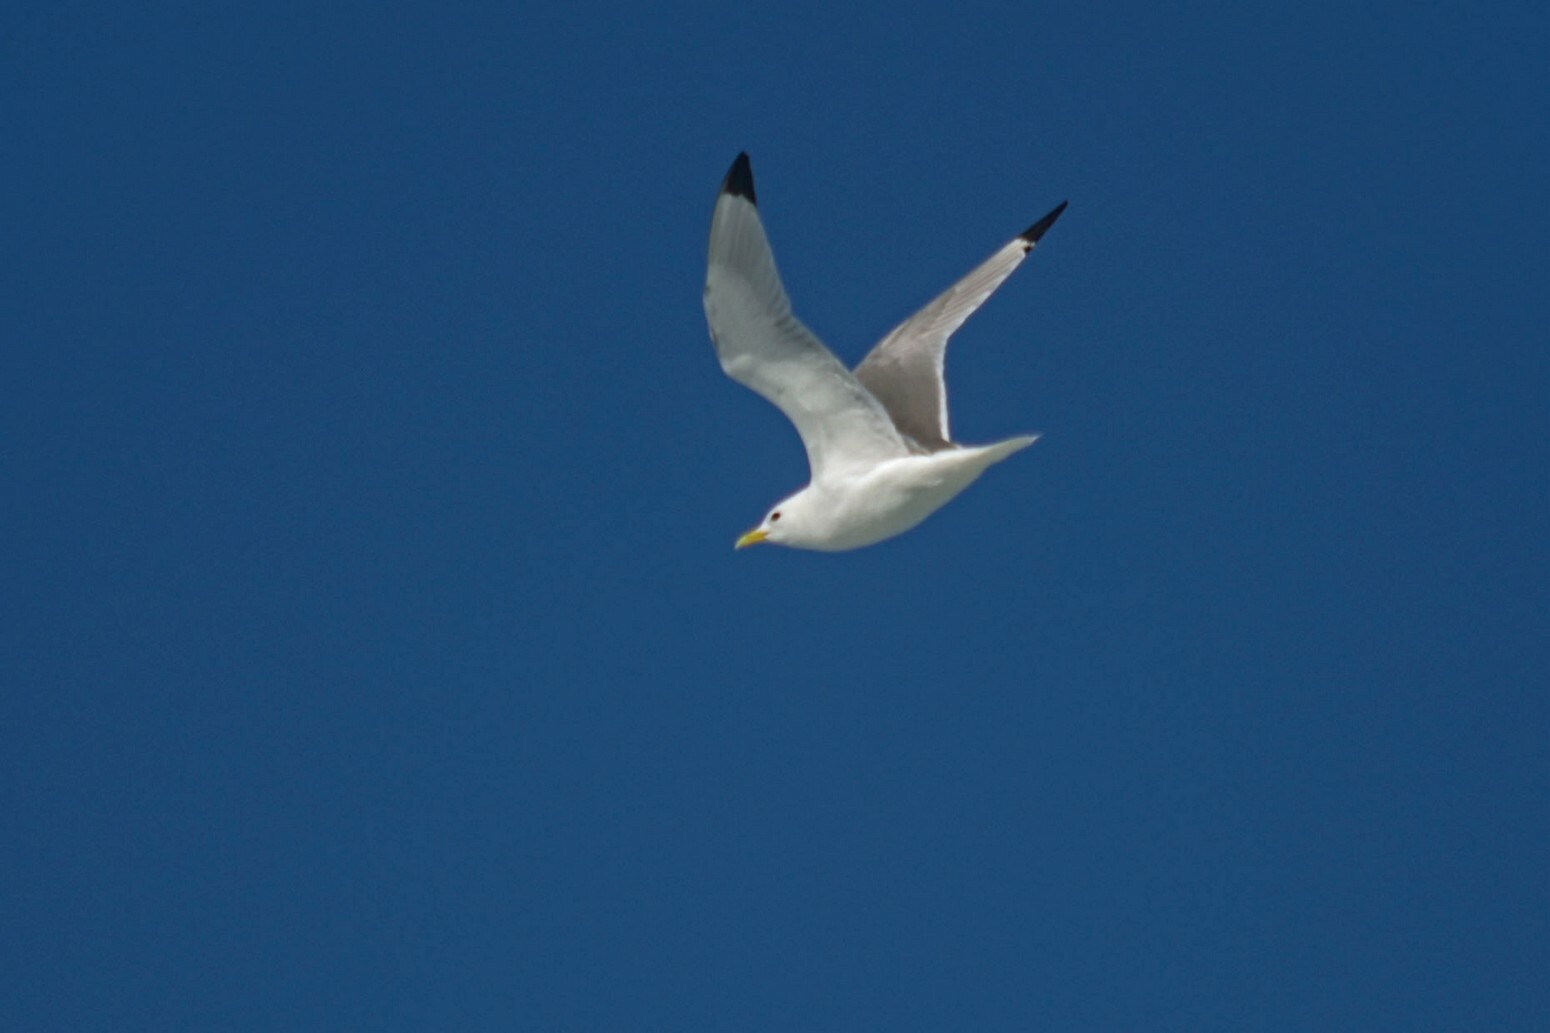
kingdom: Animalia
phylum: Chordata
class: Aves
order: Charadriiformes
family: Laridae
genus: Rissa
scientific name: Rissa tridactyla
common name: Black-legged kittiwake
